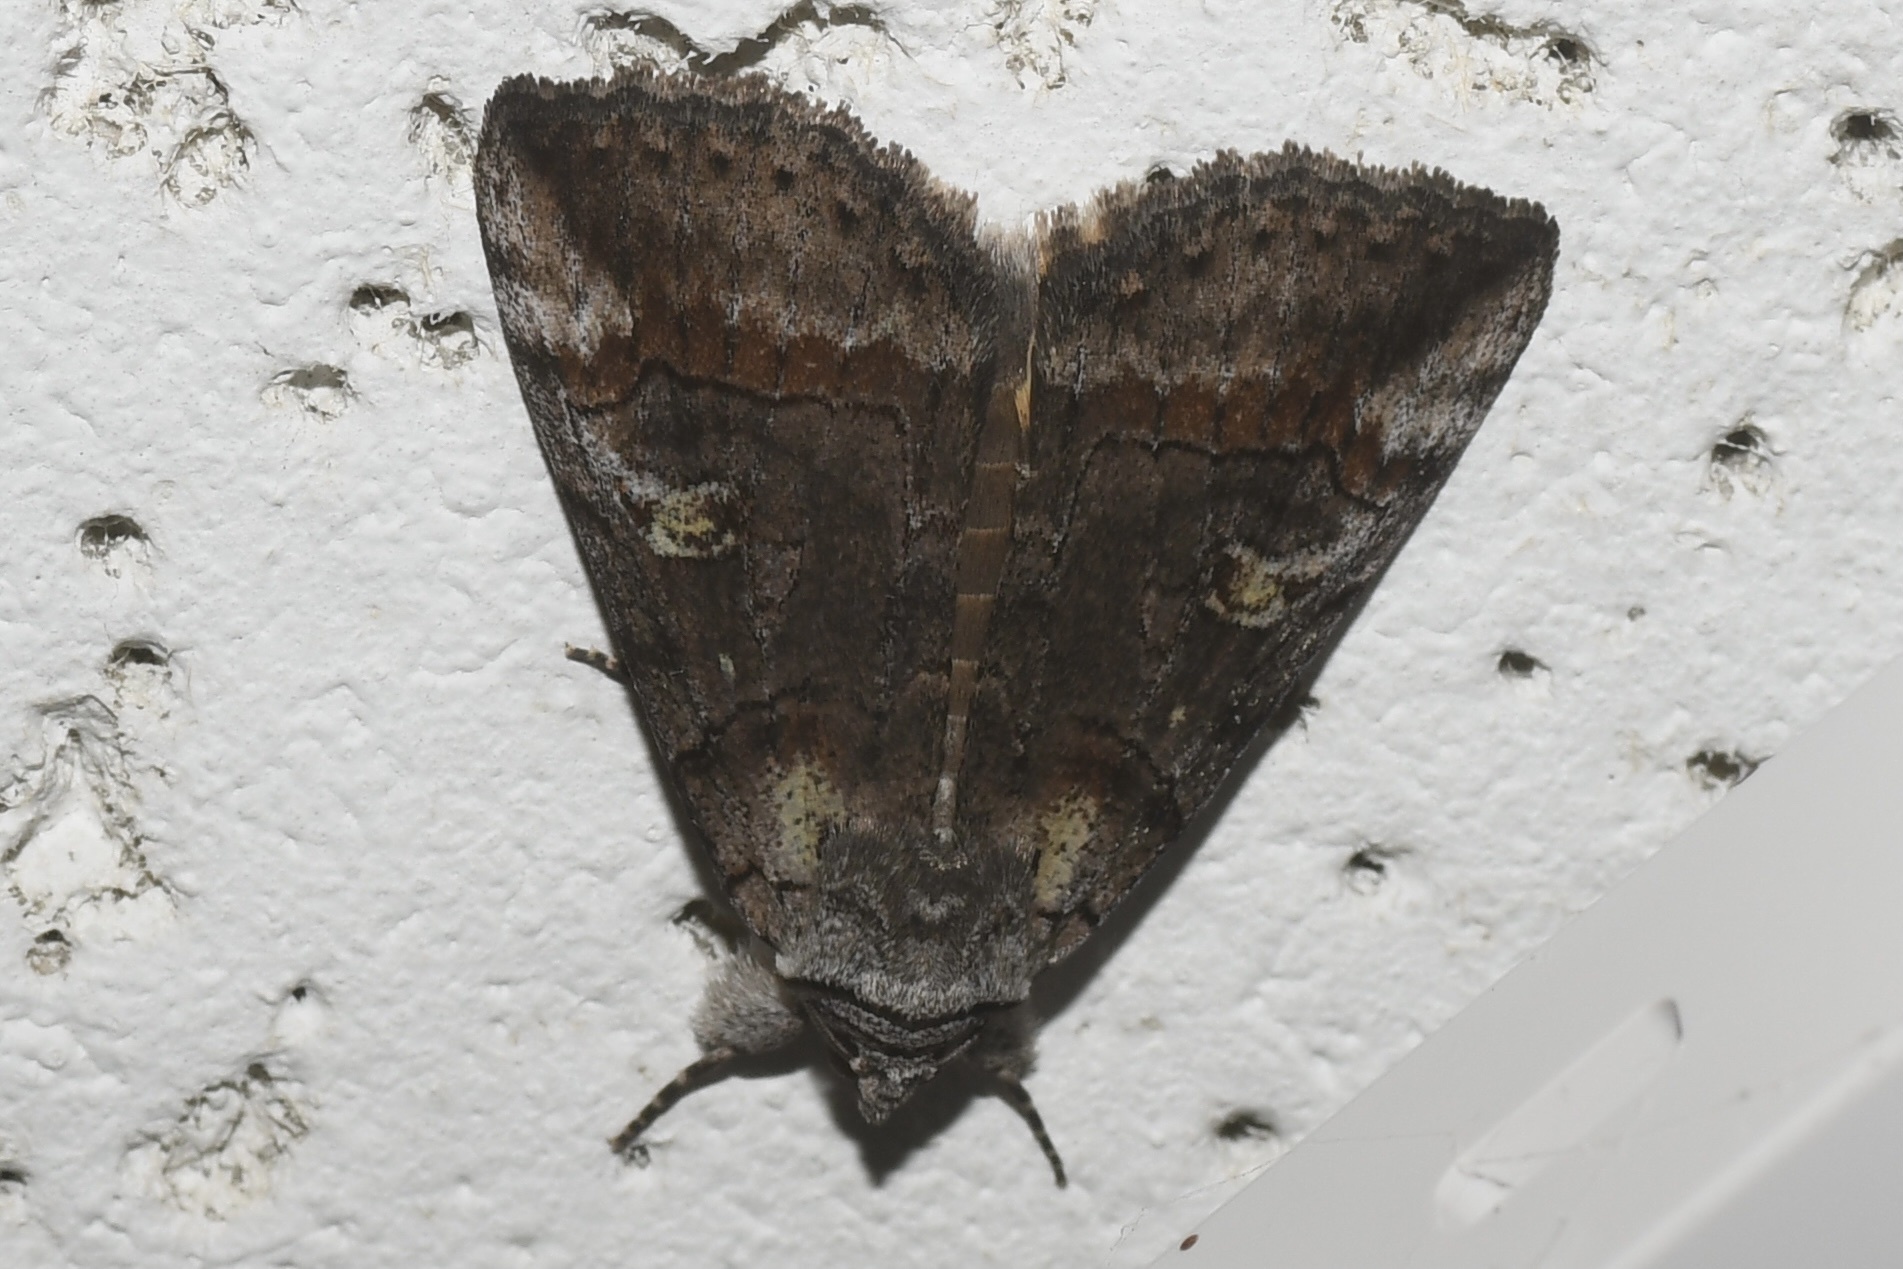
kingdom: Animalia
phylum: Arthropoda
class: Insecta
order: Lepidoptera
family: Erebidae
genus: Catocala
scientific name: Catocala similis
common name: Similar underwing
